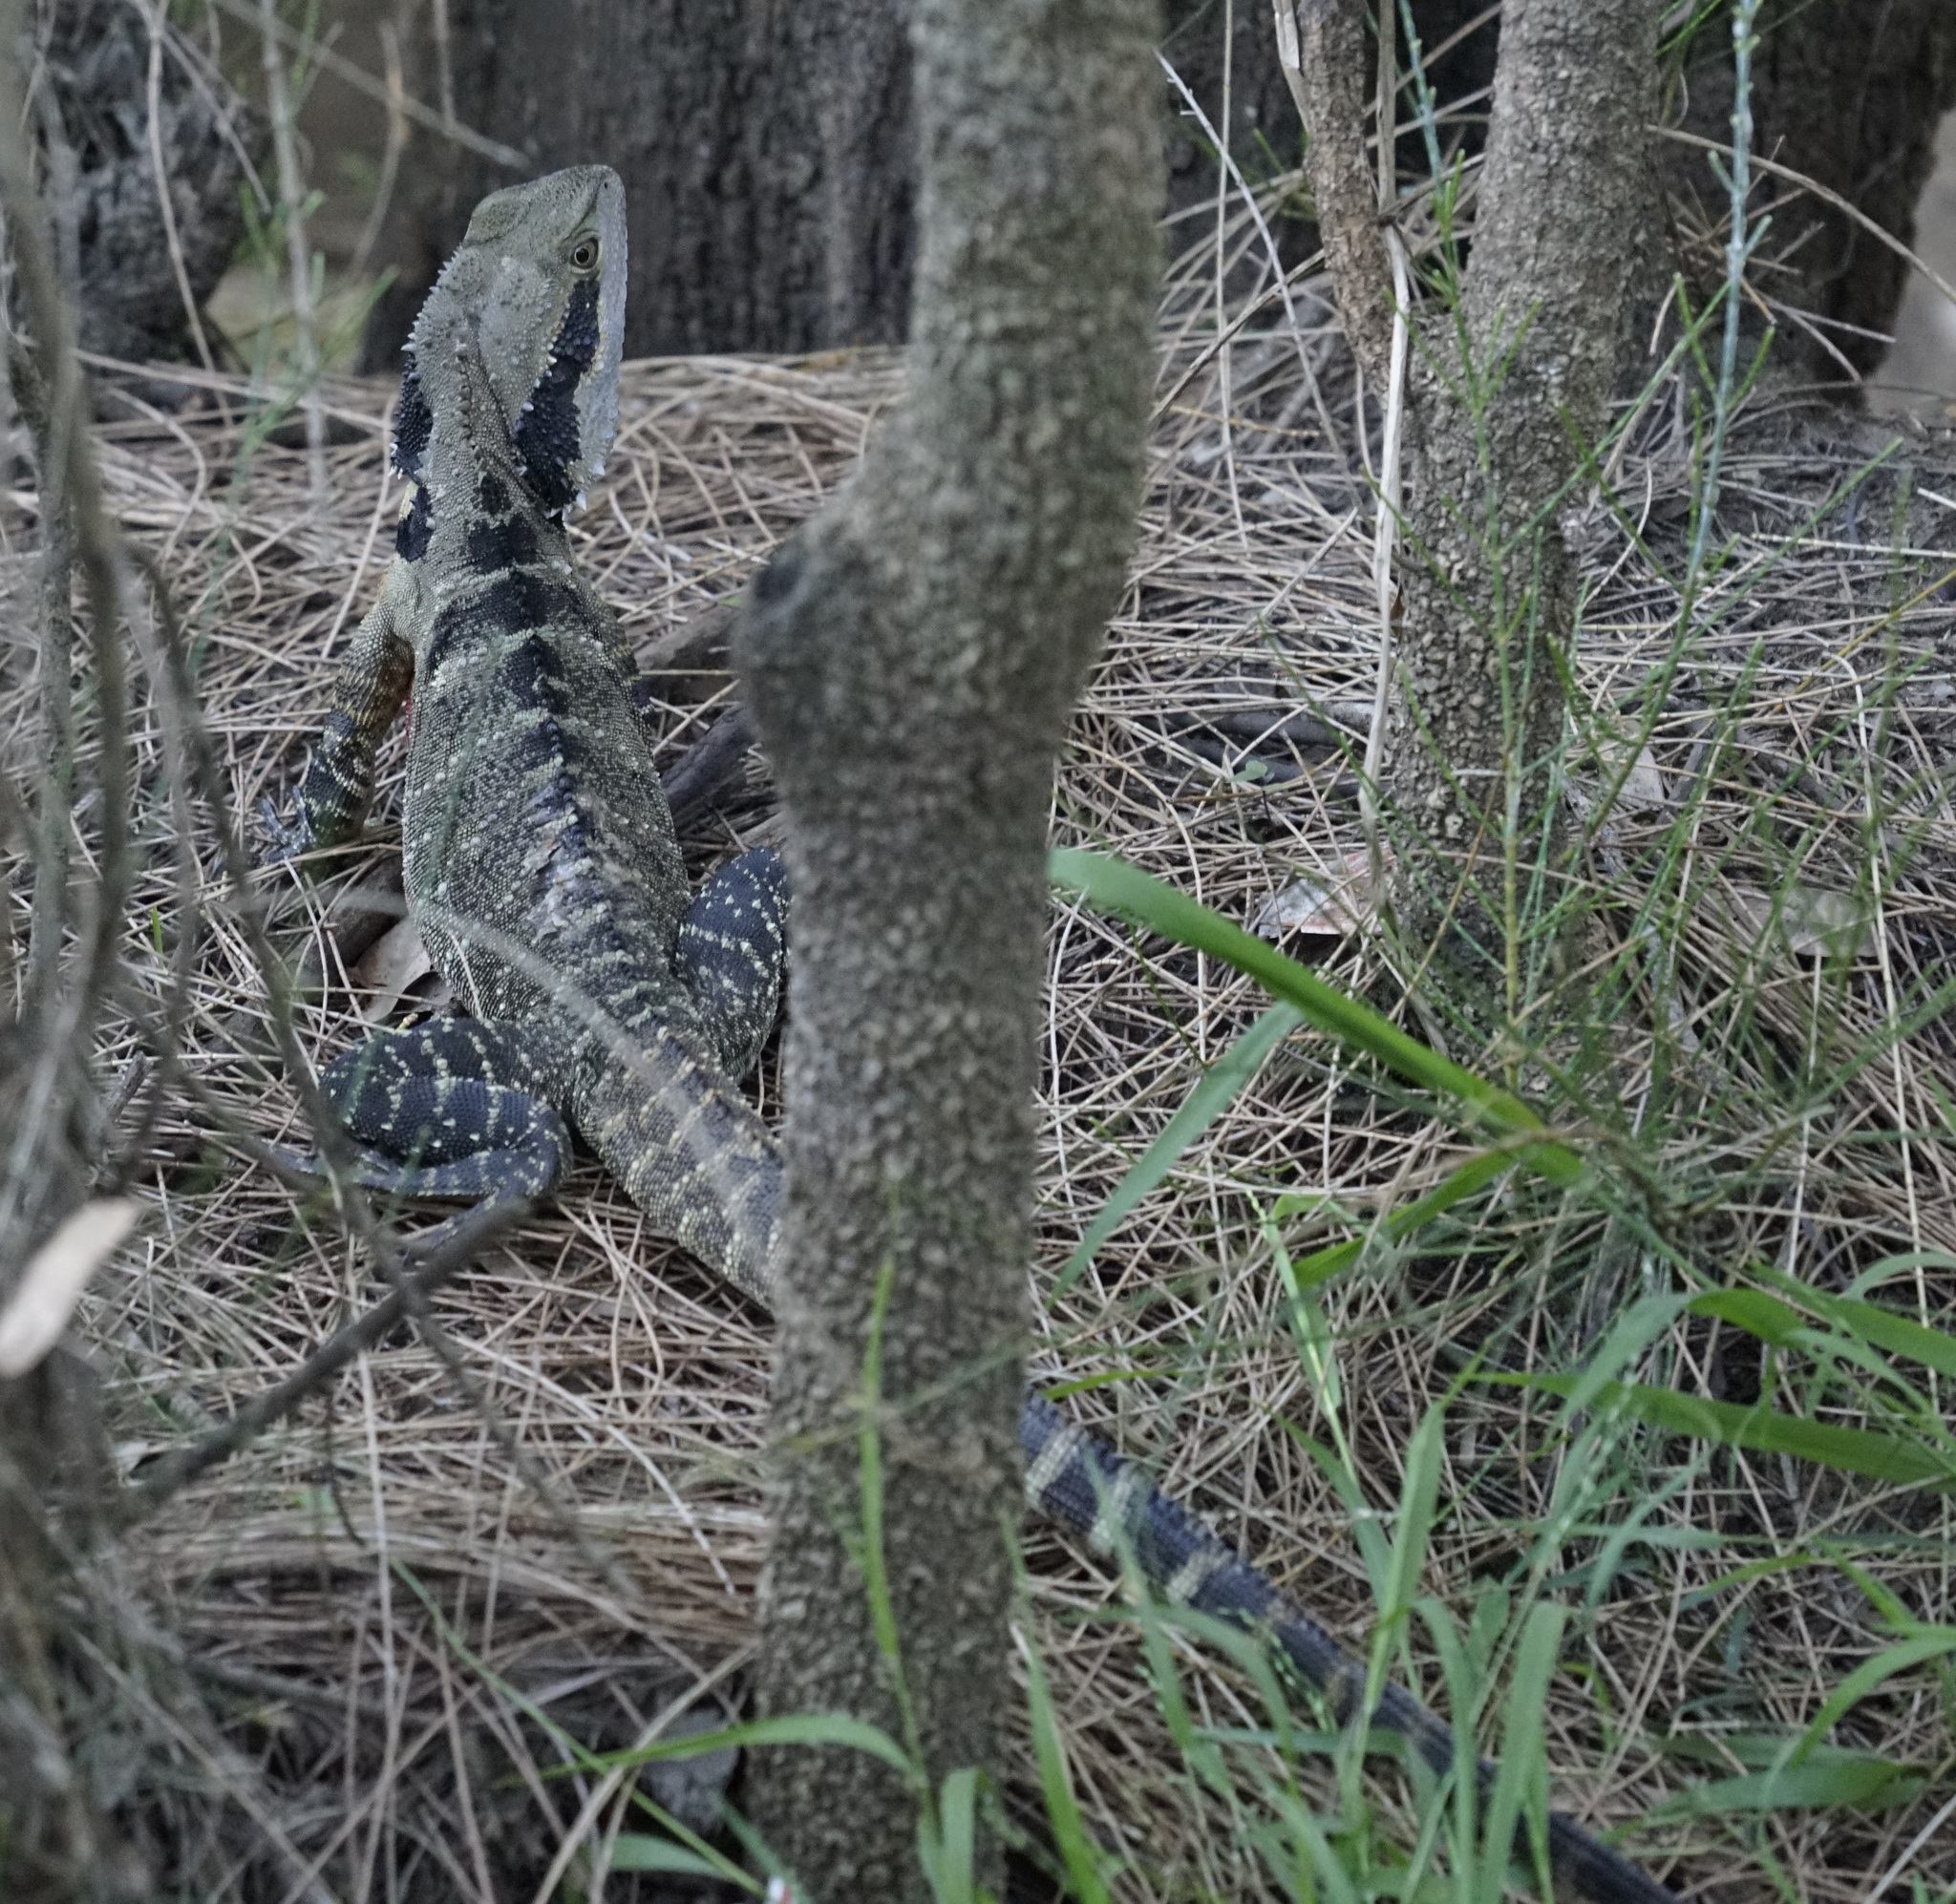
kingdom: Animalia
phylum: Chordata
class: Squamata
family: Agamidae
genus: Intellagama
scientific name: Intellagama lesueurii
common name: Eastern water dragon
